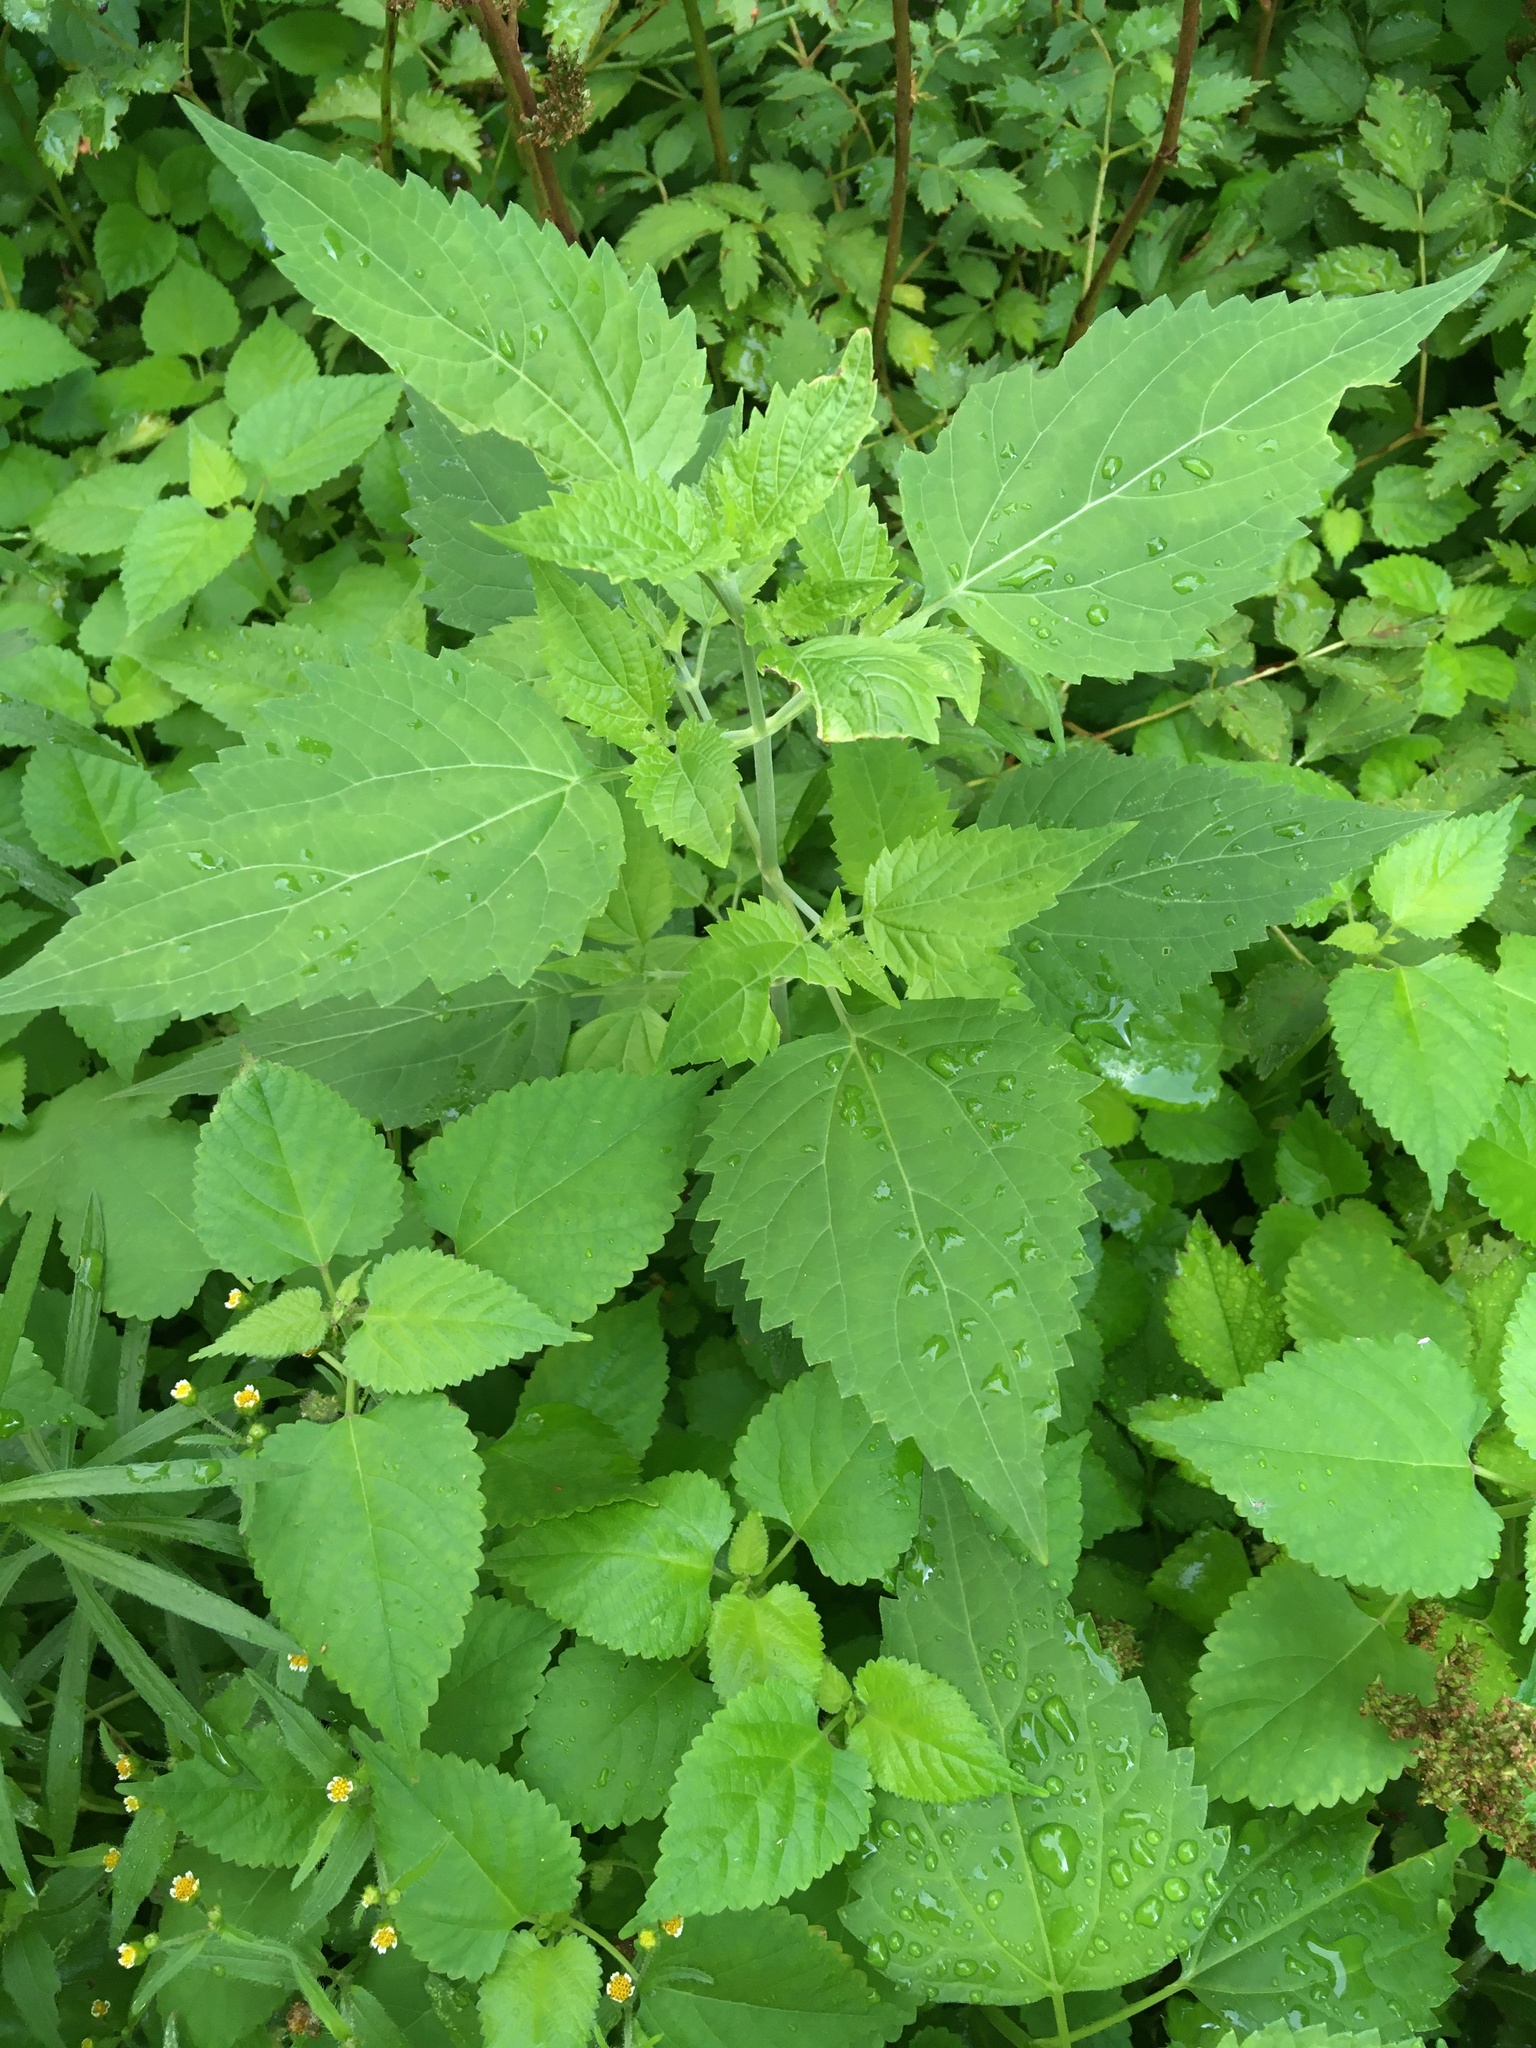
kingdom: Plantae
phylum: Tracheophyta
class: Magnoliopsida
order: Asterales
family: Asteraceae
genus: Ageratina
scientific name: Ageratina altissima
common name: White snakeroot
